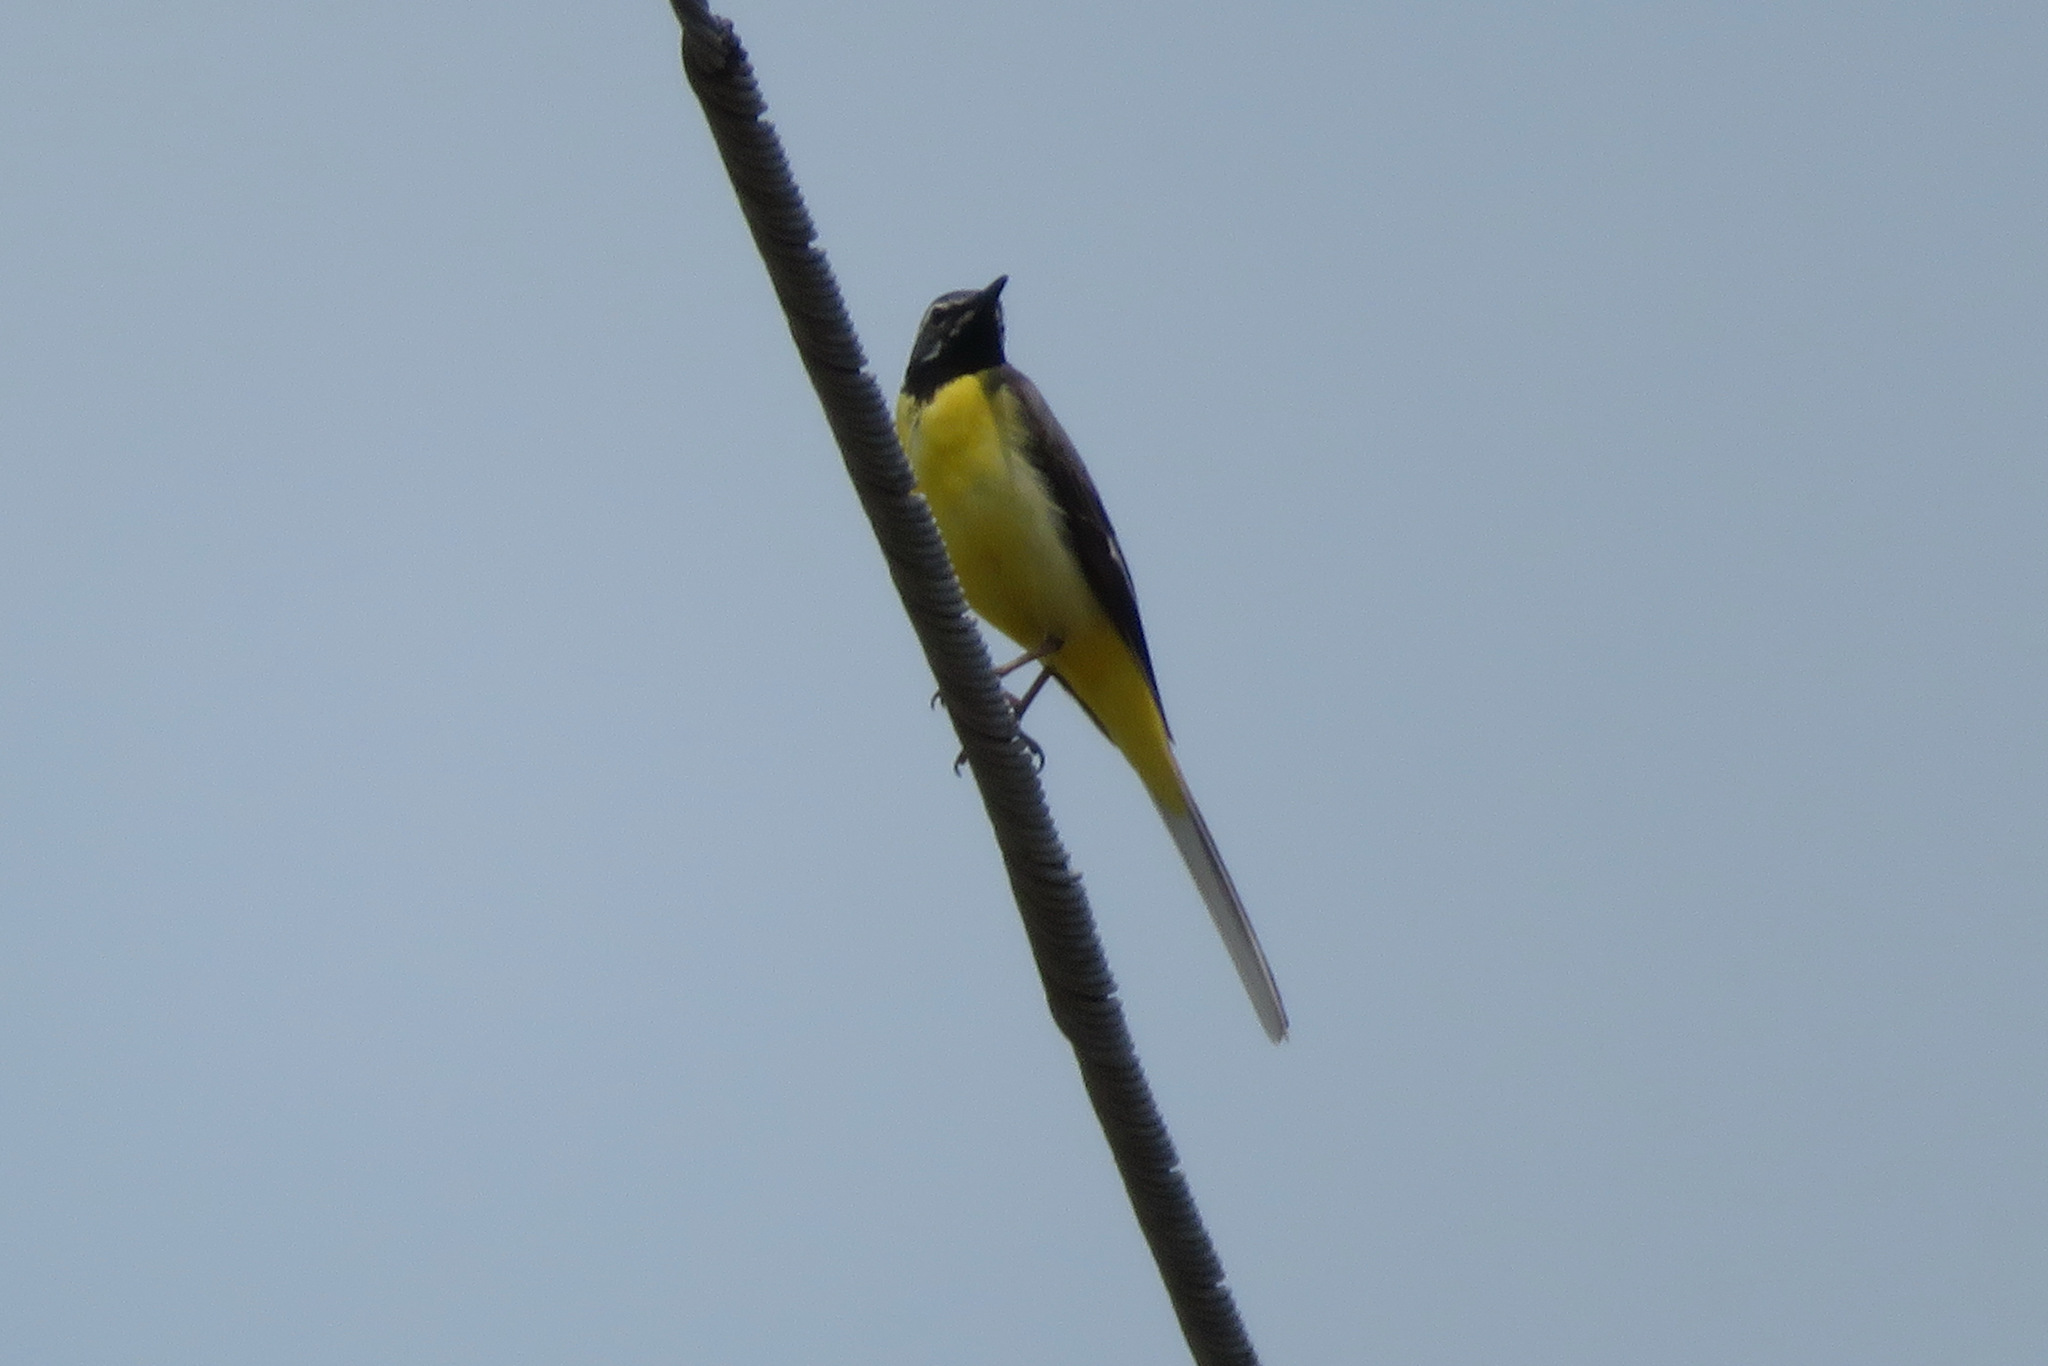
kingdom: Animalia
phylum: Chordata
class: Aves
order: Passeriformes
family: Motacillidae
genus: Motacilla
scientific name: Motacilla cinerea
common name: Grey wagtail
